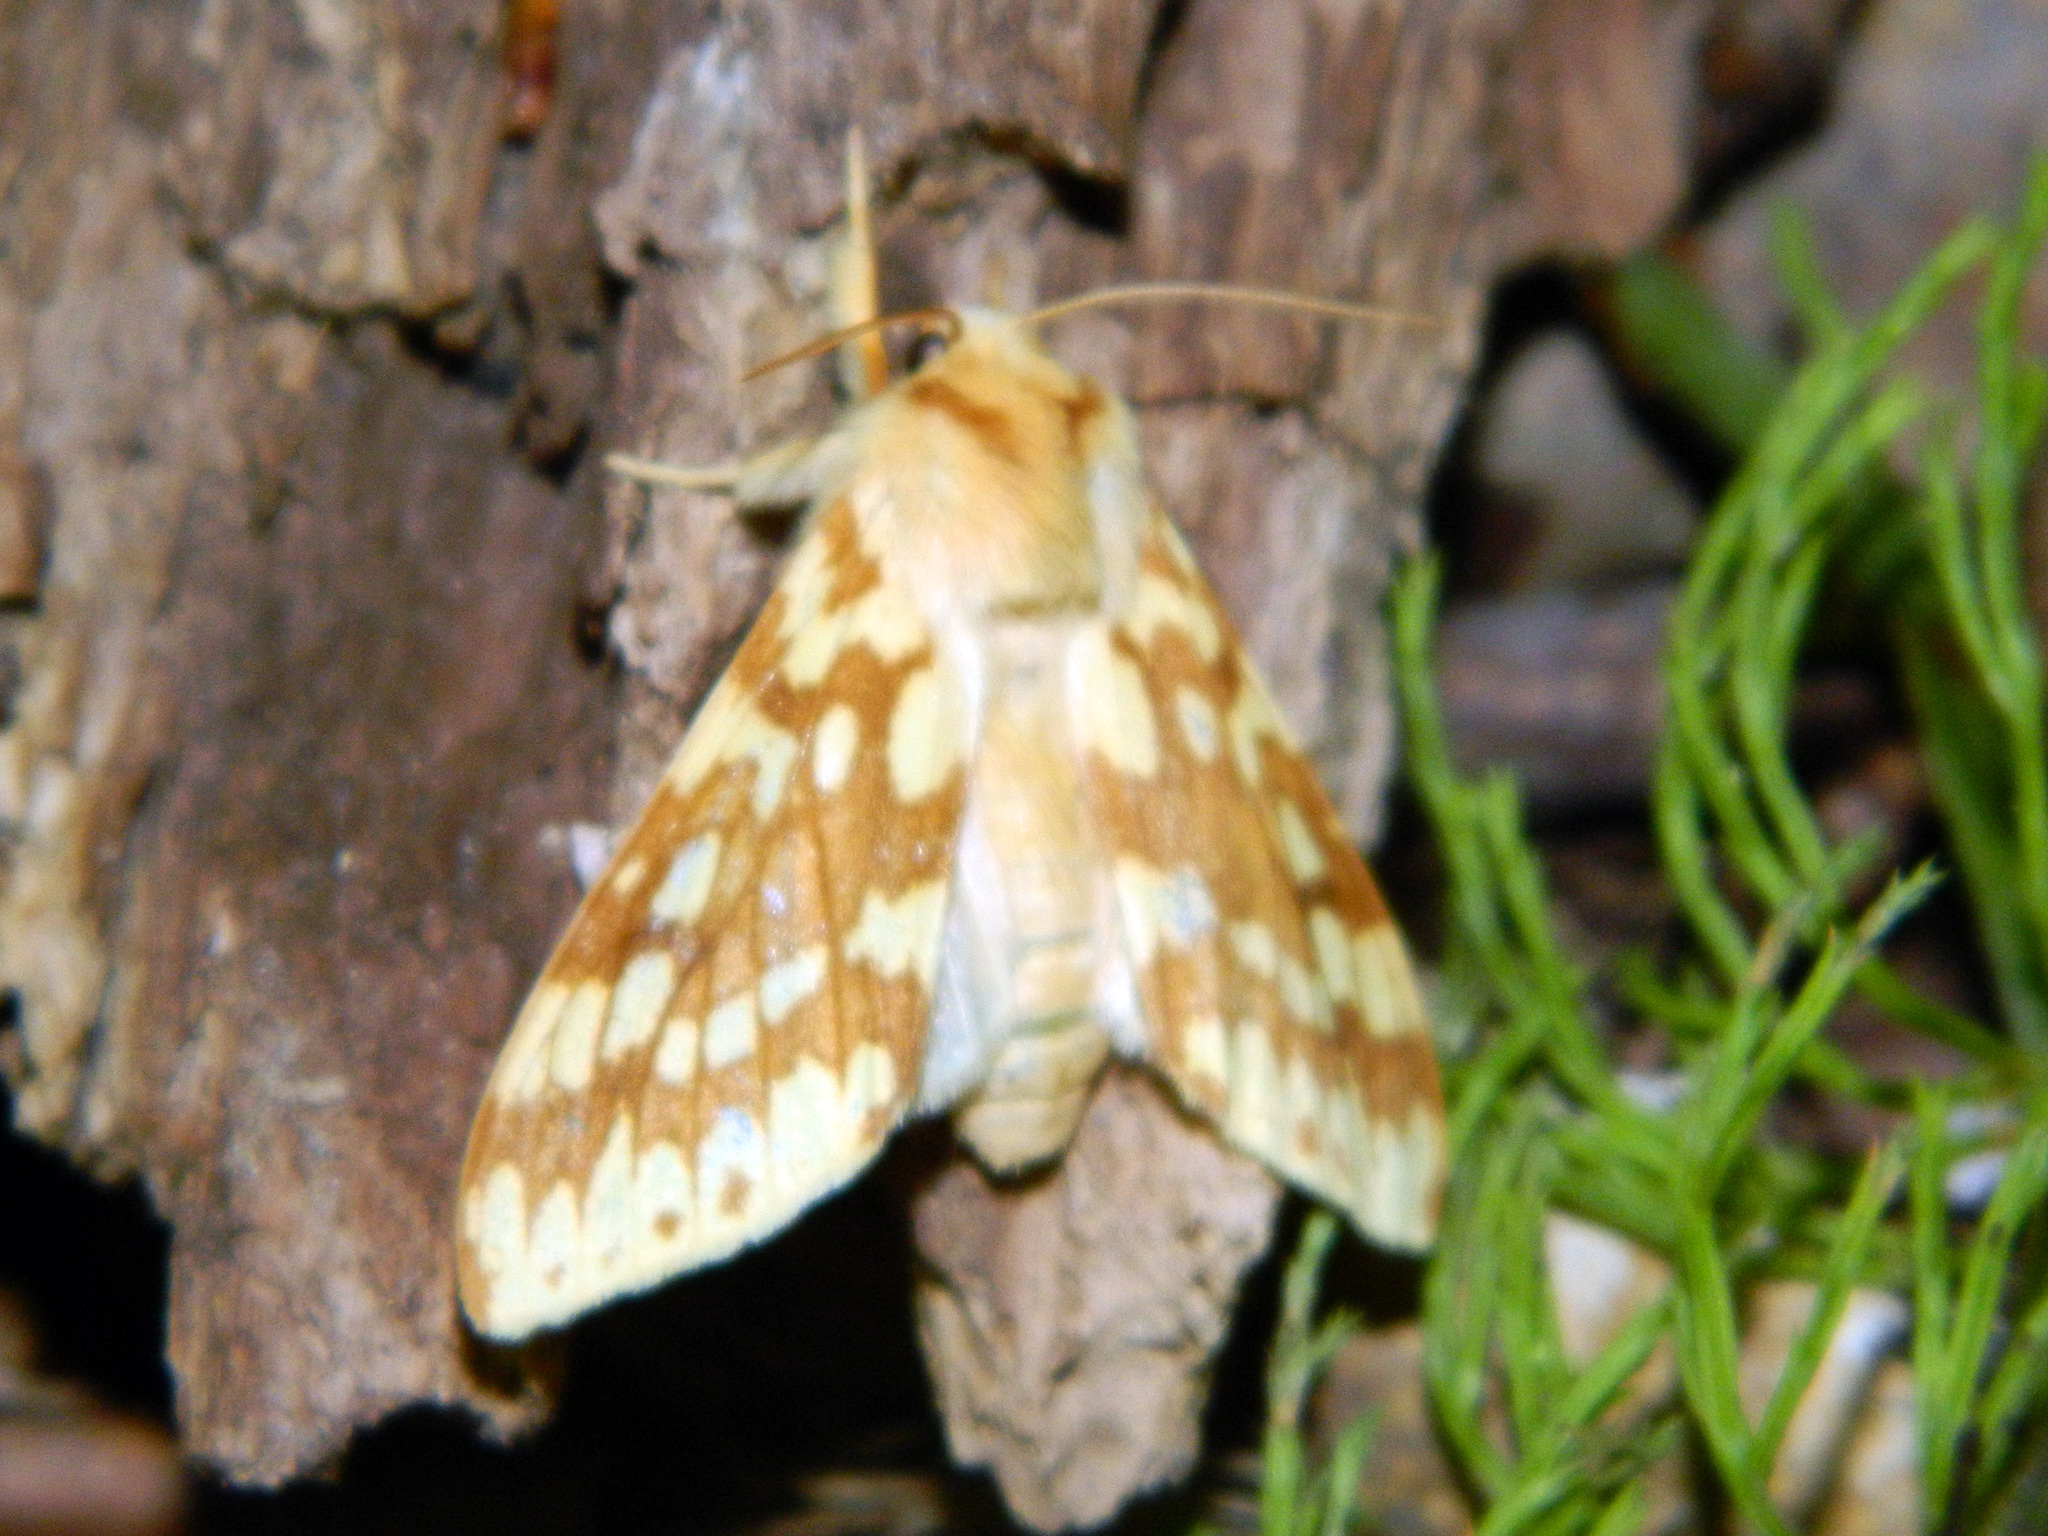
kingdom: Animalia
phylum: Arthropoda
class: Insecta
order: Lepidoptera
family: Erebidae
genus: Lophocampa
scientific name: Lophocampa maculata
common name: Spotted tussock moth
